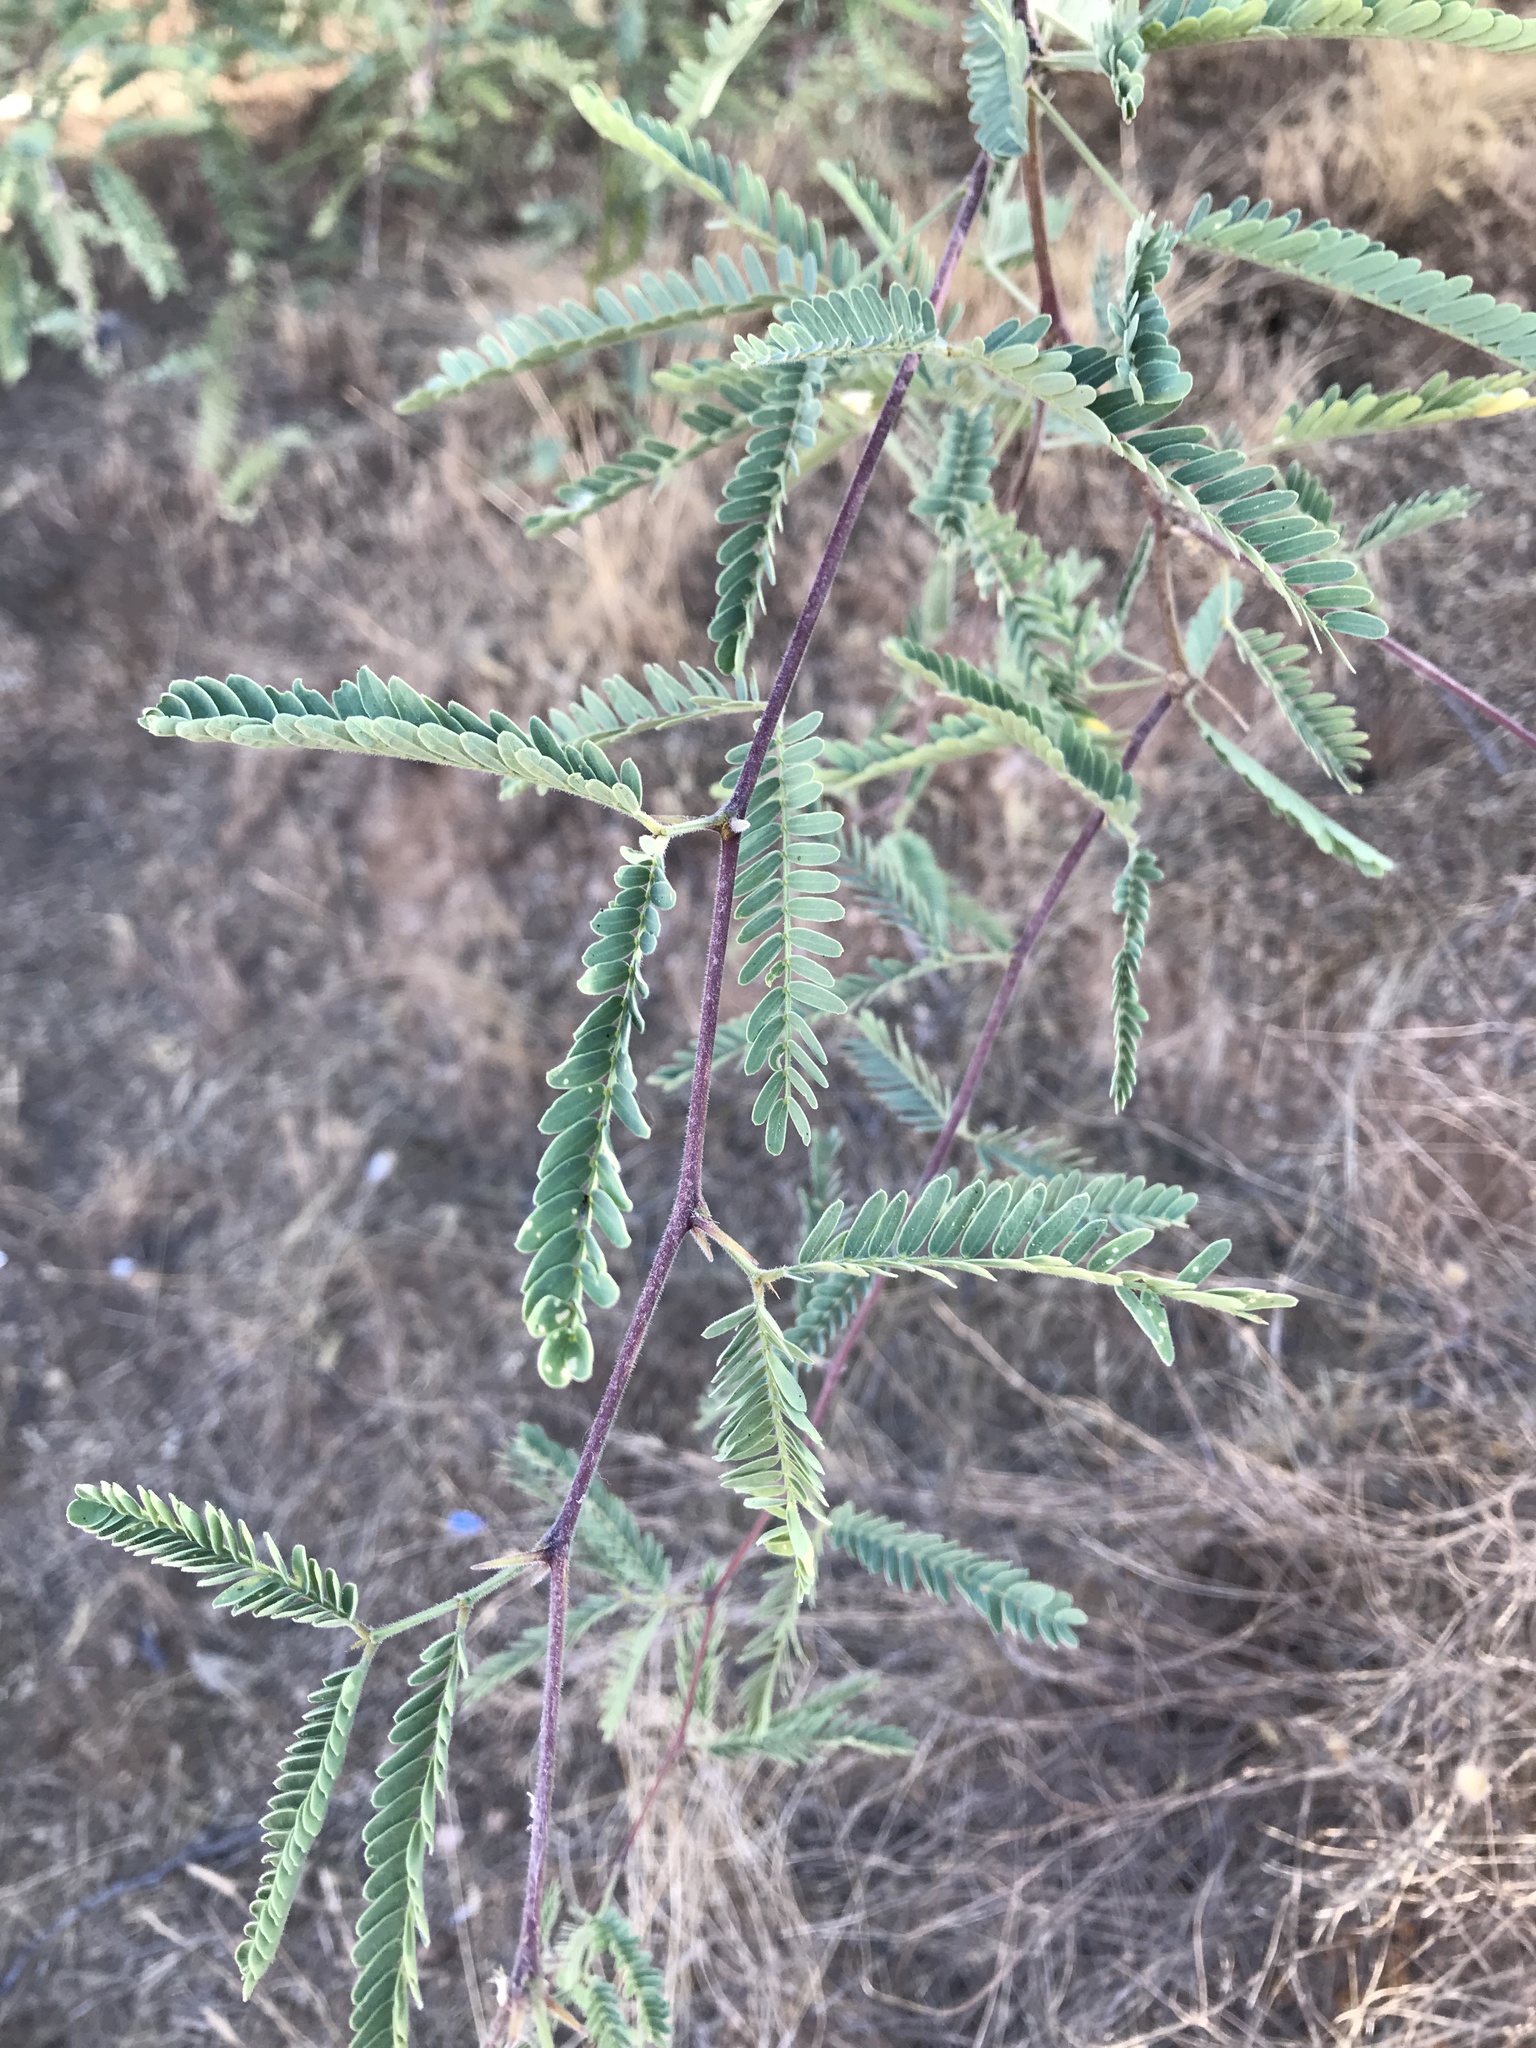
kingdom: Plantae
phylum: Tracheophyta
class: Magnoliopsida
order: Fabales
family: Fabaceae
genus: Prosopis
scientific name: Prosopis velutina
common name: Velvet mesquite
